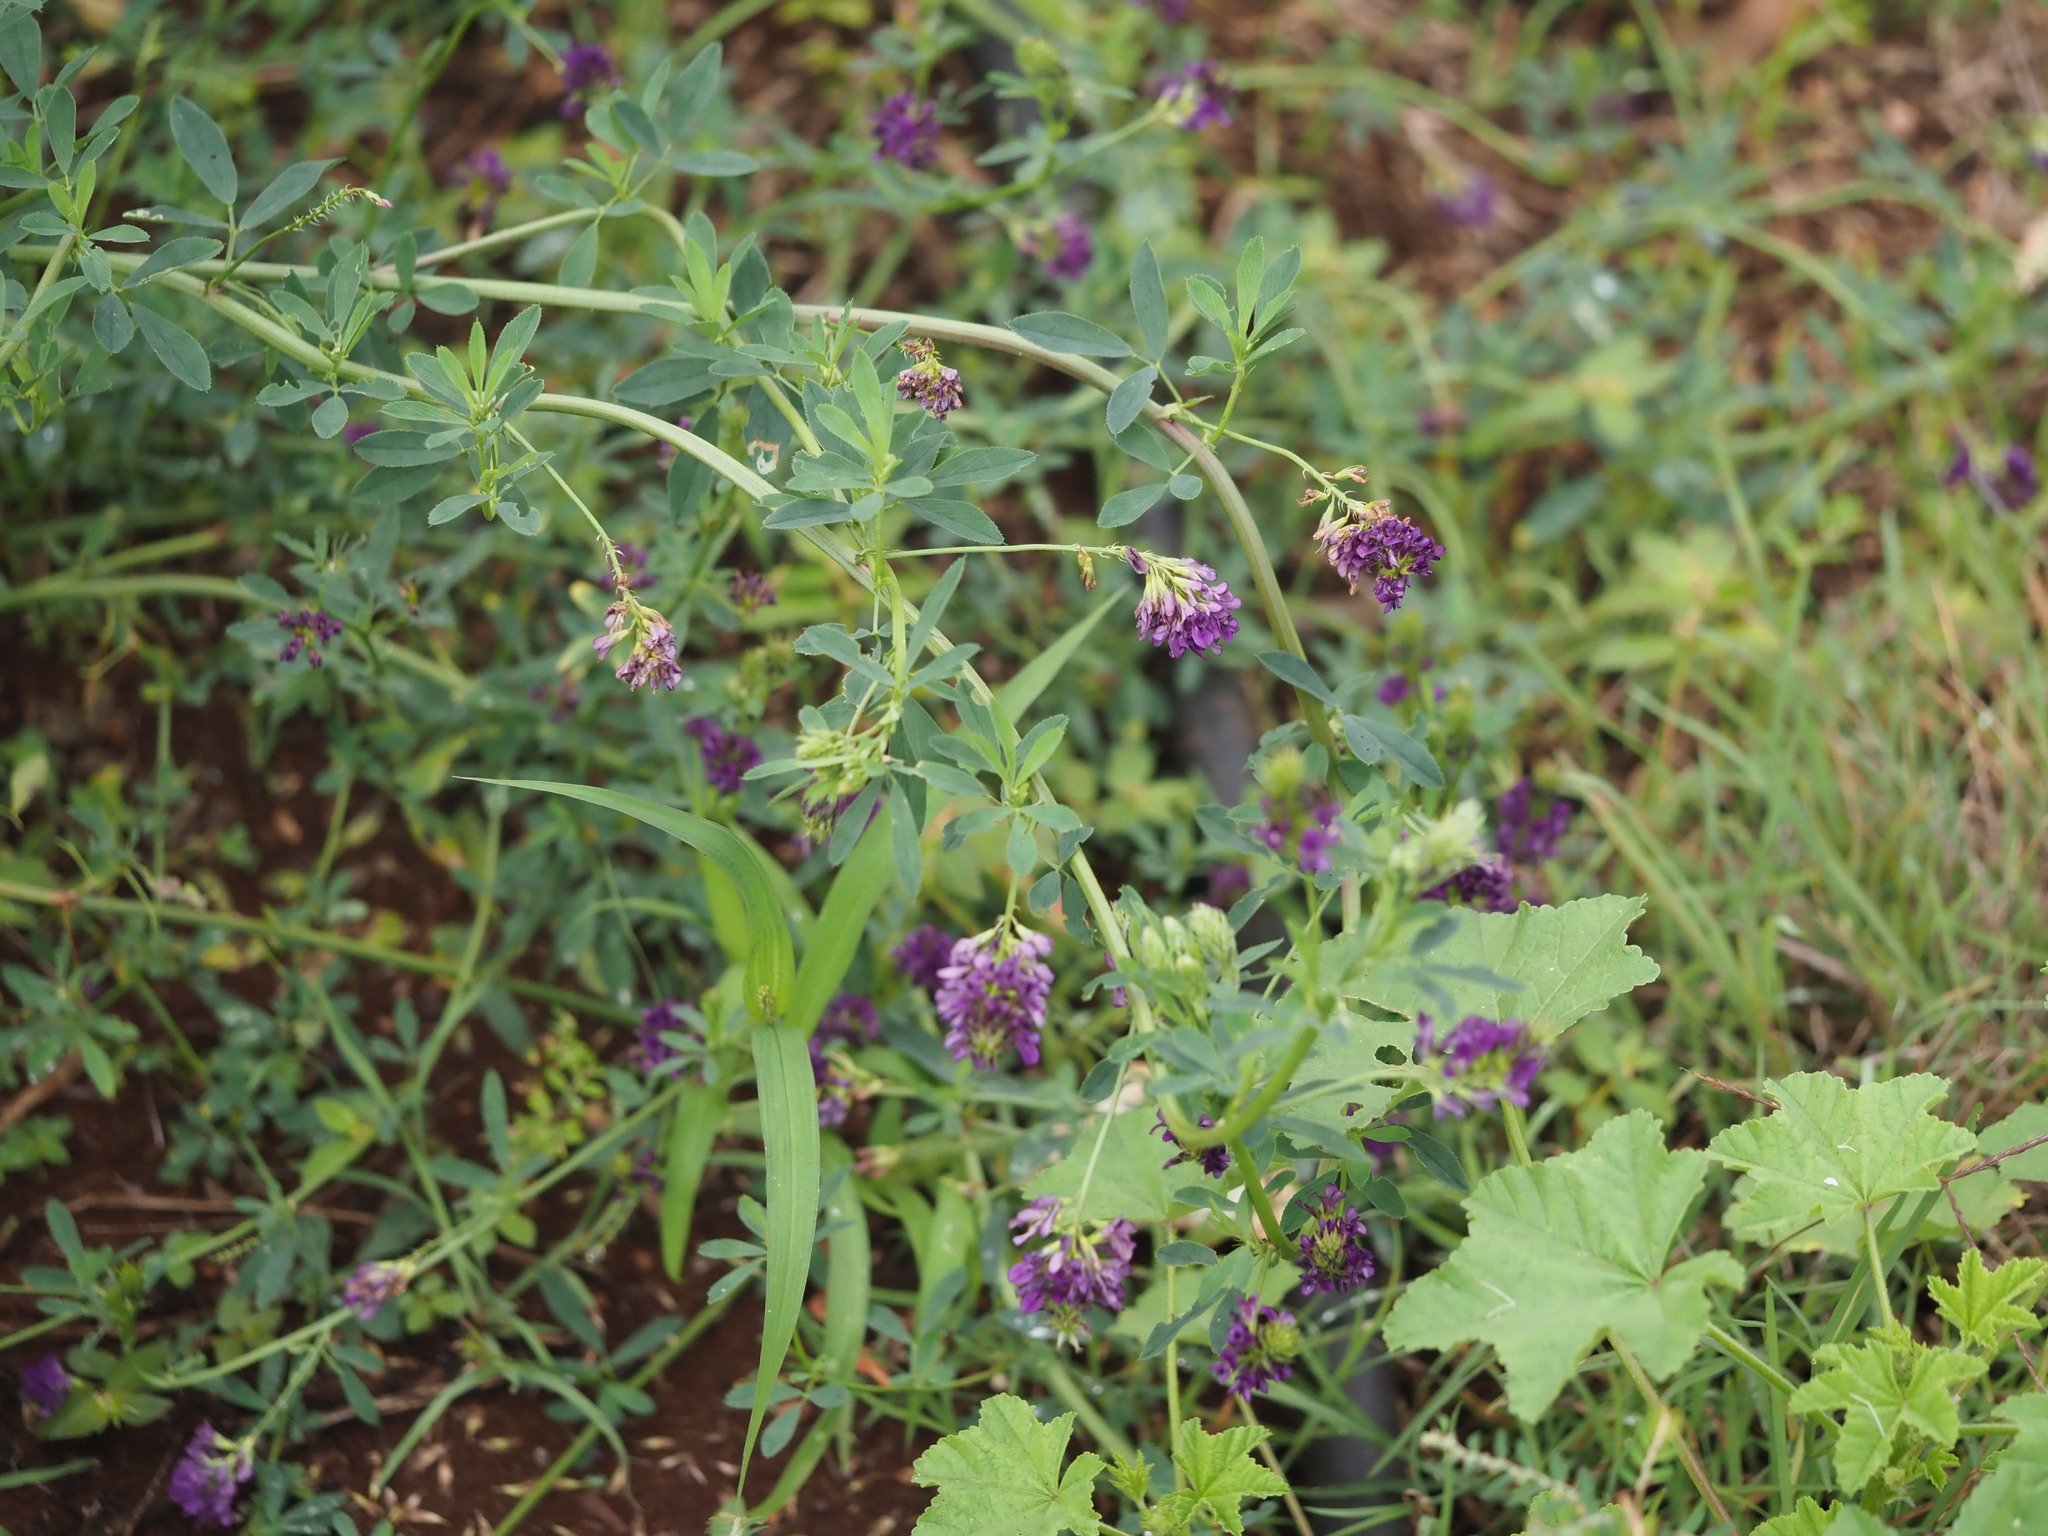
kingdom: Plantae
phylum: Tracheophyta
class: Magnoliopsida
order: Fabales
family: Fabaceae
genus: Medicago
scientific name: Medicago sativa
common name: Alfalfa
